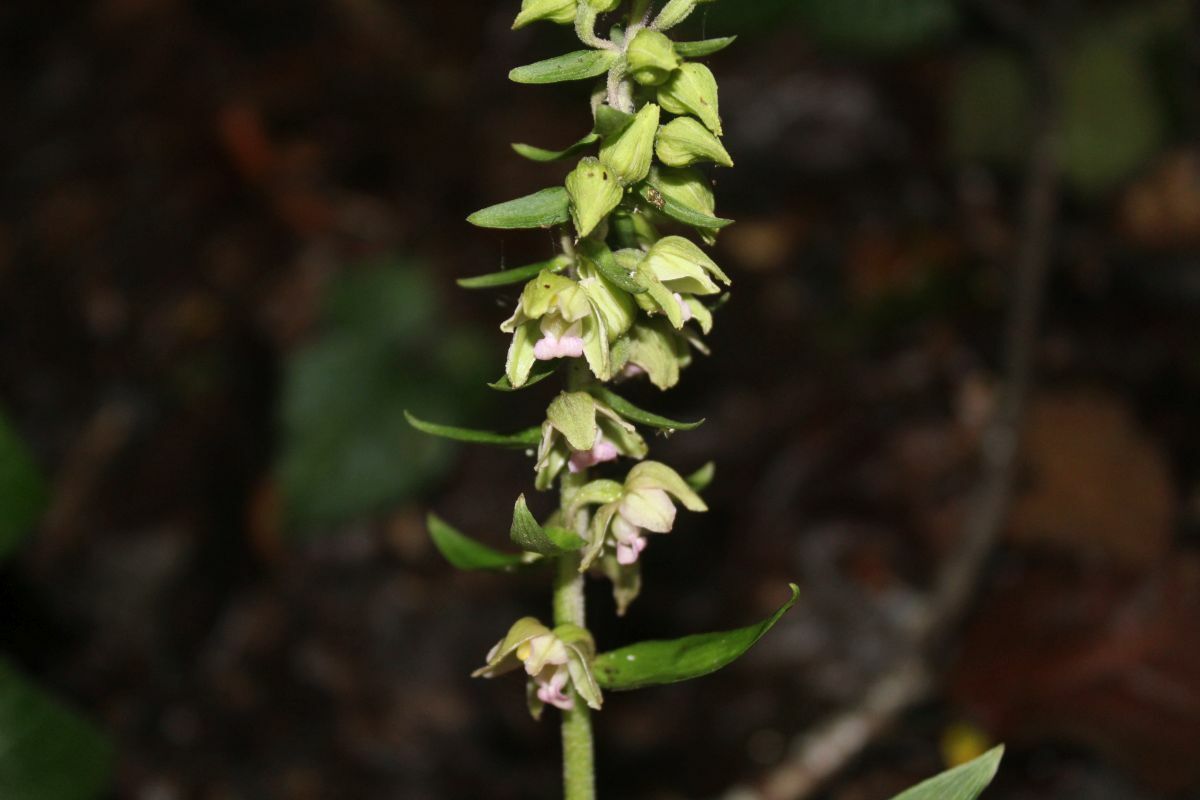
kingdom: Plantae
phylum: Tracheophyta
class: Liliopsida
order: Asparagales
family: Orchidaceae
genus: Epipactis
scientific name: Epipactis helleborine
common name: Broad-leaved helleborine
